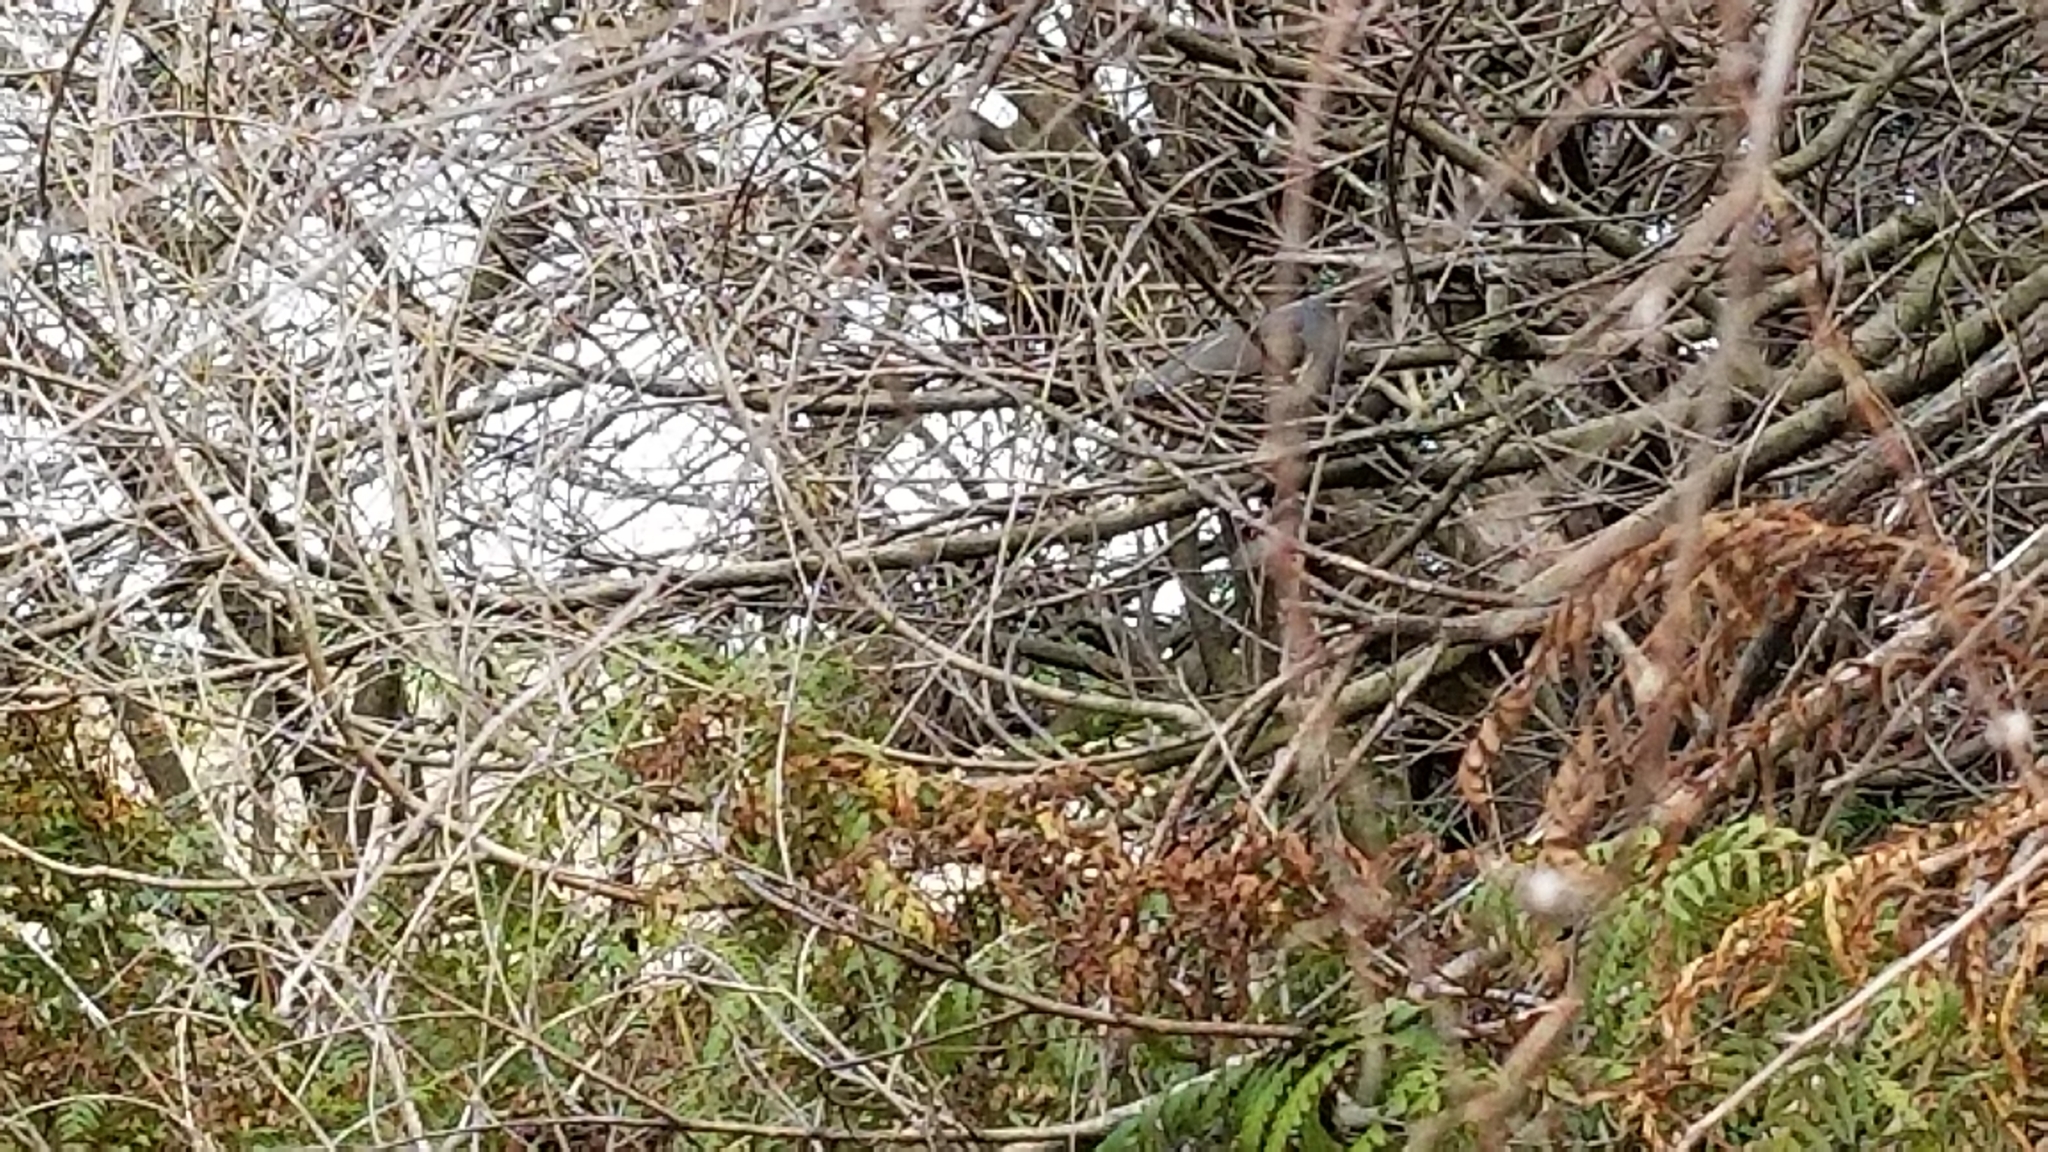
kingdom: Animalia
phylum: Chordata
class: Aves
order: Galliformes
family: Odontophoridae
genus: Callipepla
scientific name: Callipepla californica
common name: California quail
